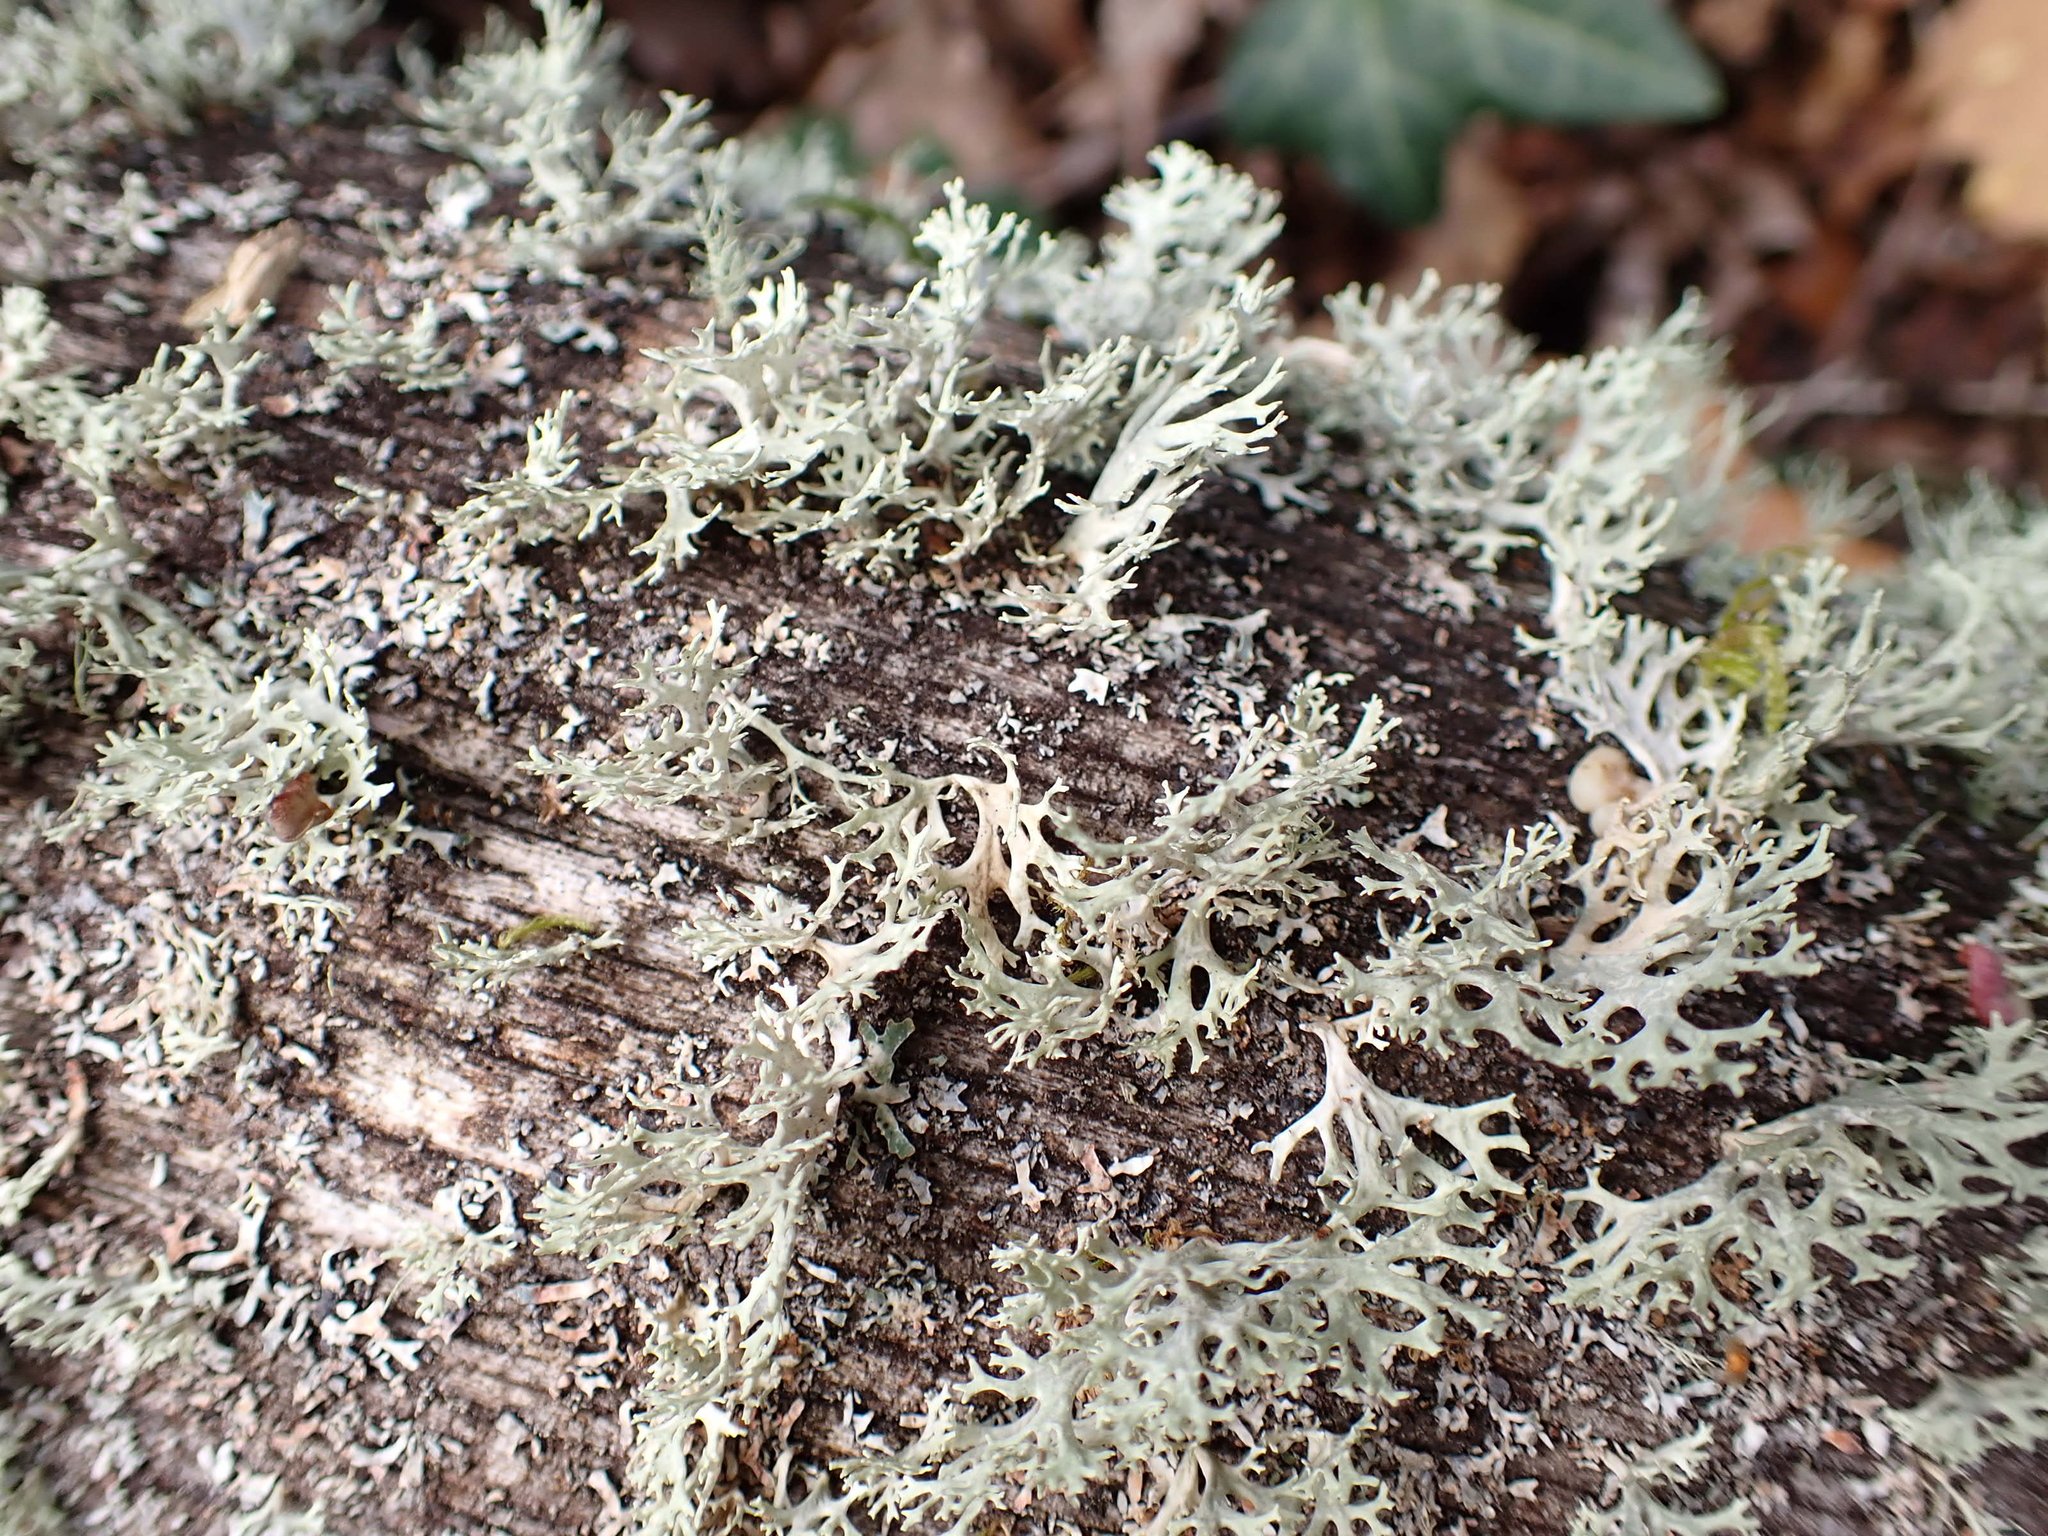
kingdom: Fungi
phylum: Ascomycota
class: Lecanoromycetes
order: Lecanorales
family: Parmeliaceae
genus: Evernia
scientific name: Evernia prunastri
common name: Oak moss
